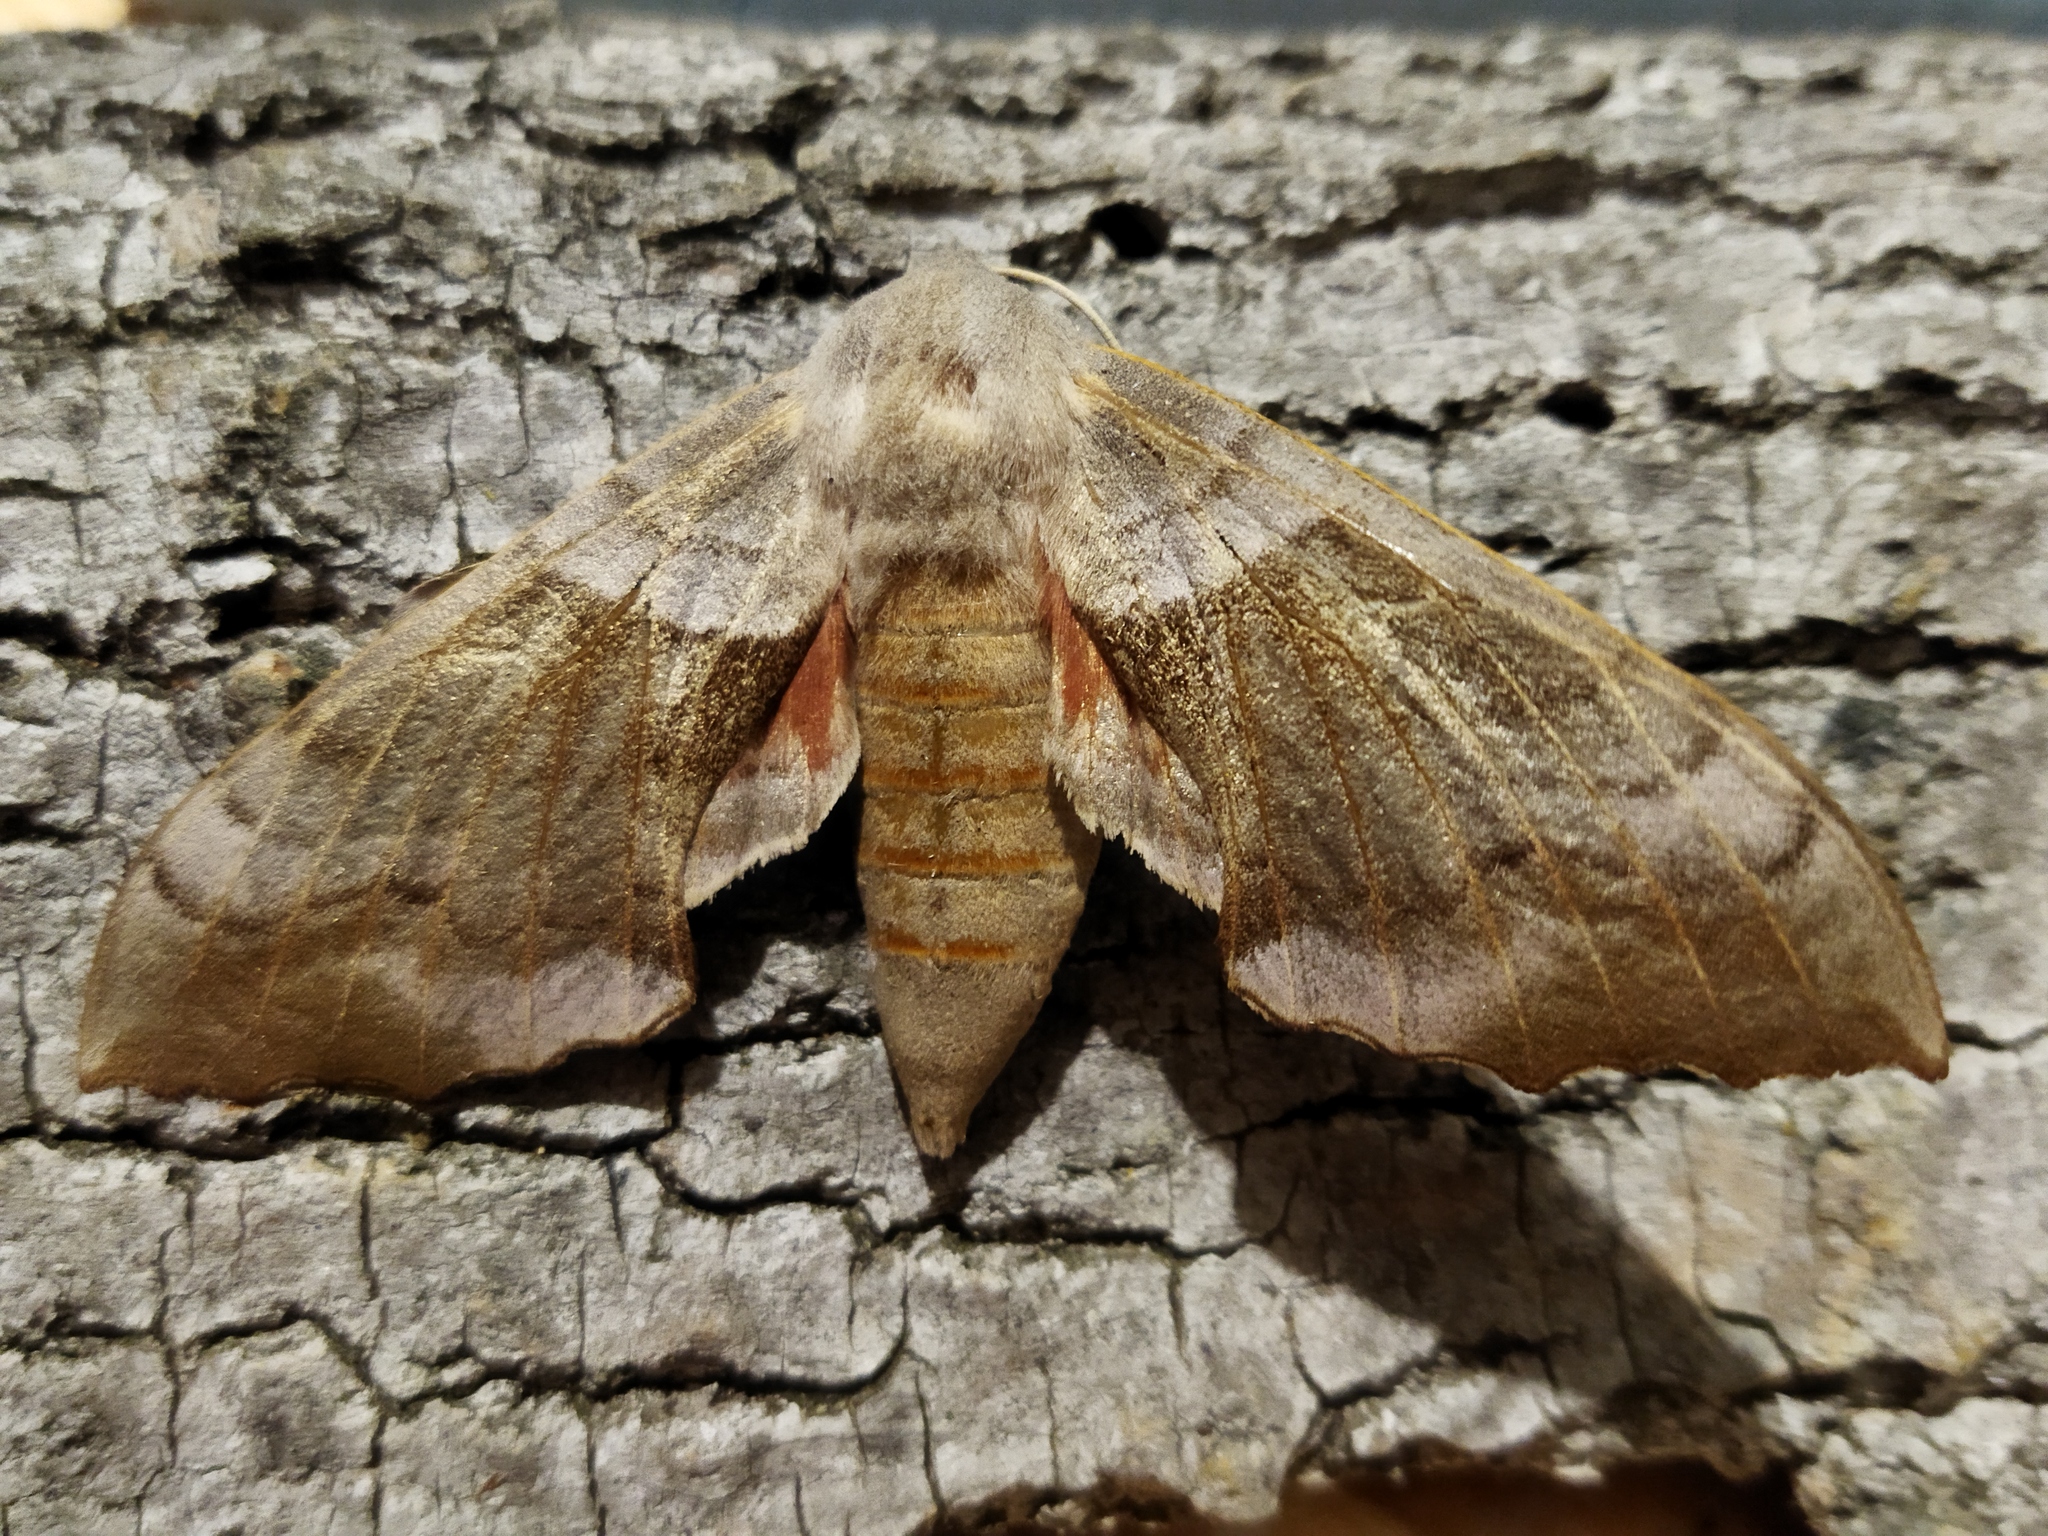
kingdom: Animalia
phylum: Arthropoda
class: Insecta
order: Lepidoptera
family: Sphingidae
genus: Laothoe
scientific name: Laothoe populi
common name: Poplar hawk-moth
